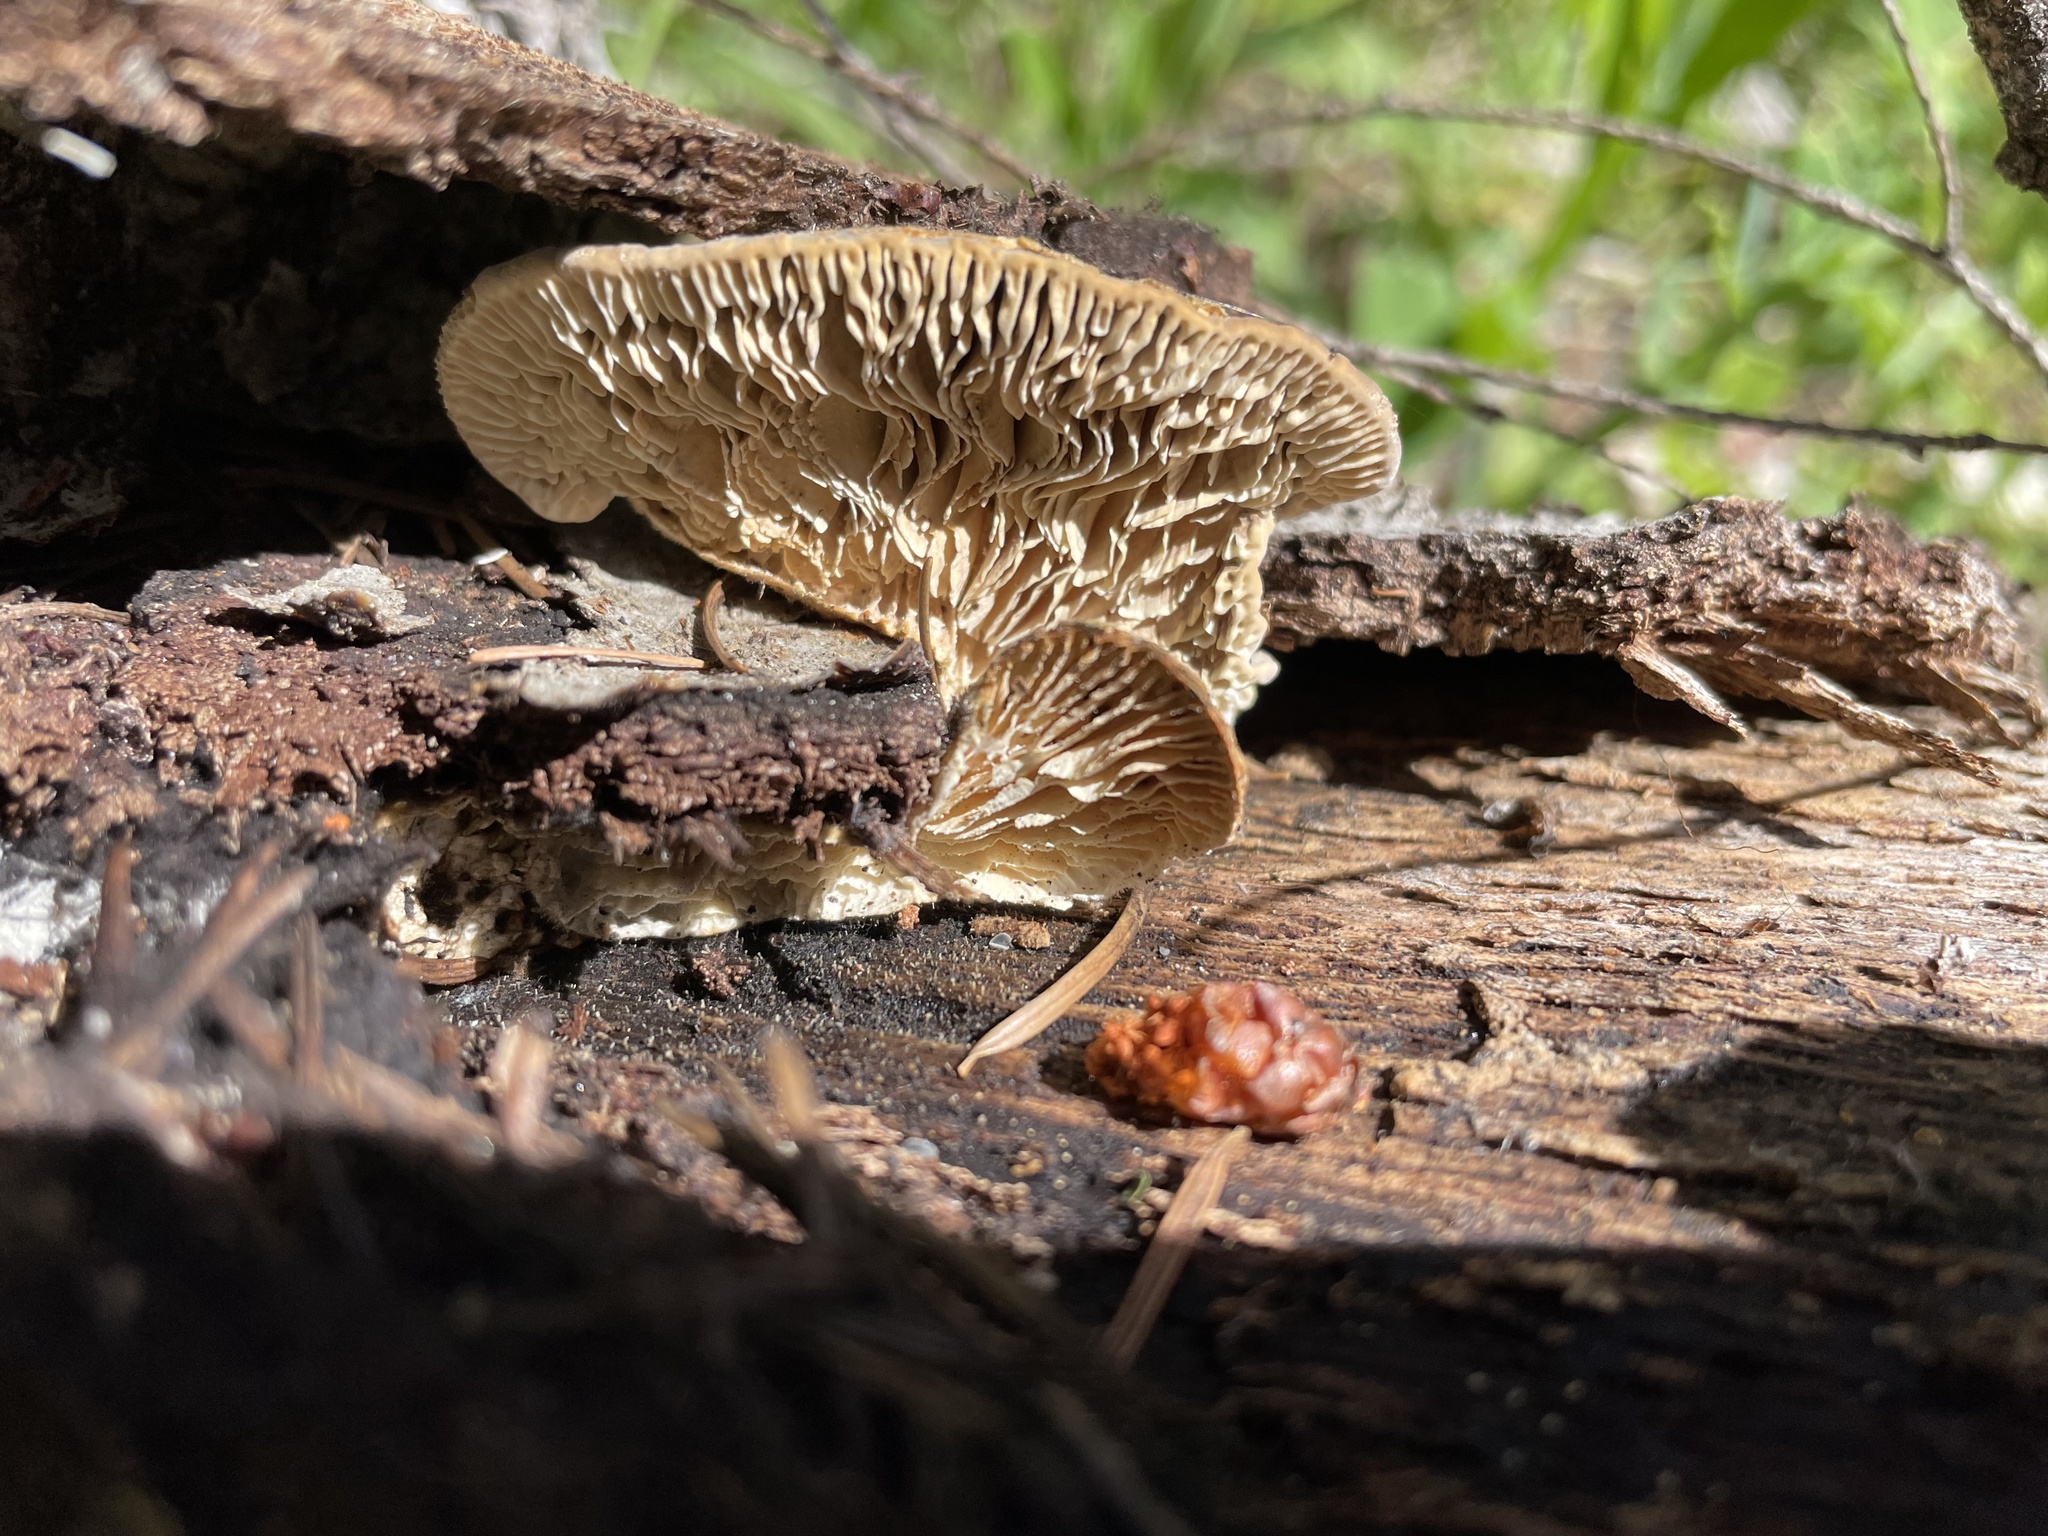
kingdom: Fungi
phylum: Basidiomycota
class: Agaricomycetes
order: Polyporales
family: Polyporaceae
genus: Lenzites
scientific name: Lenzites betulinus
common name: Birch mazegill
